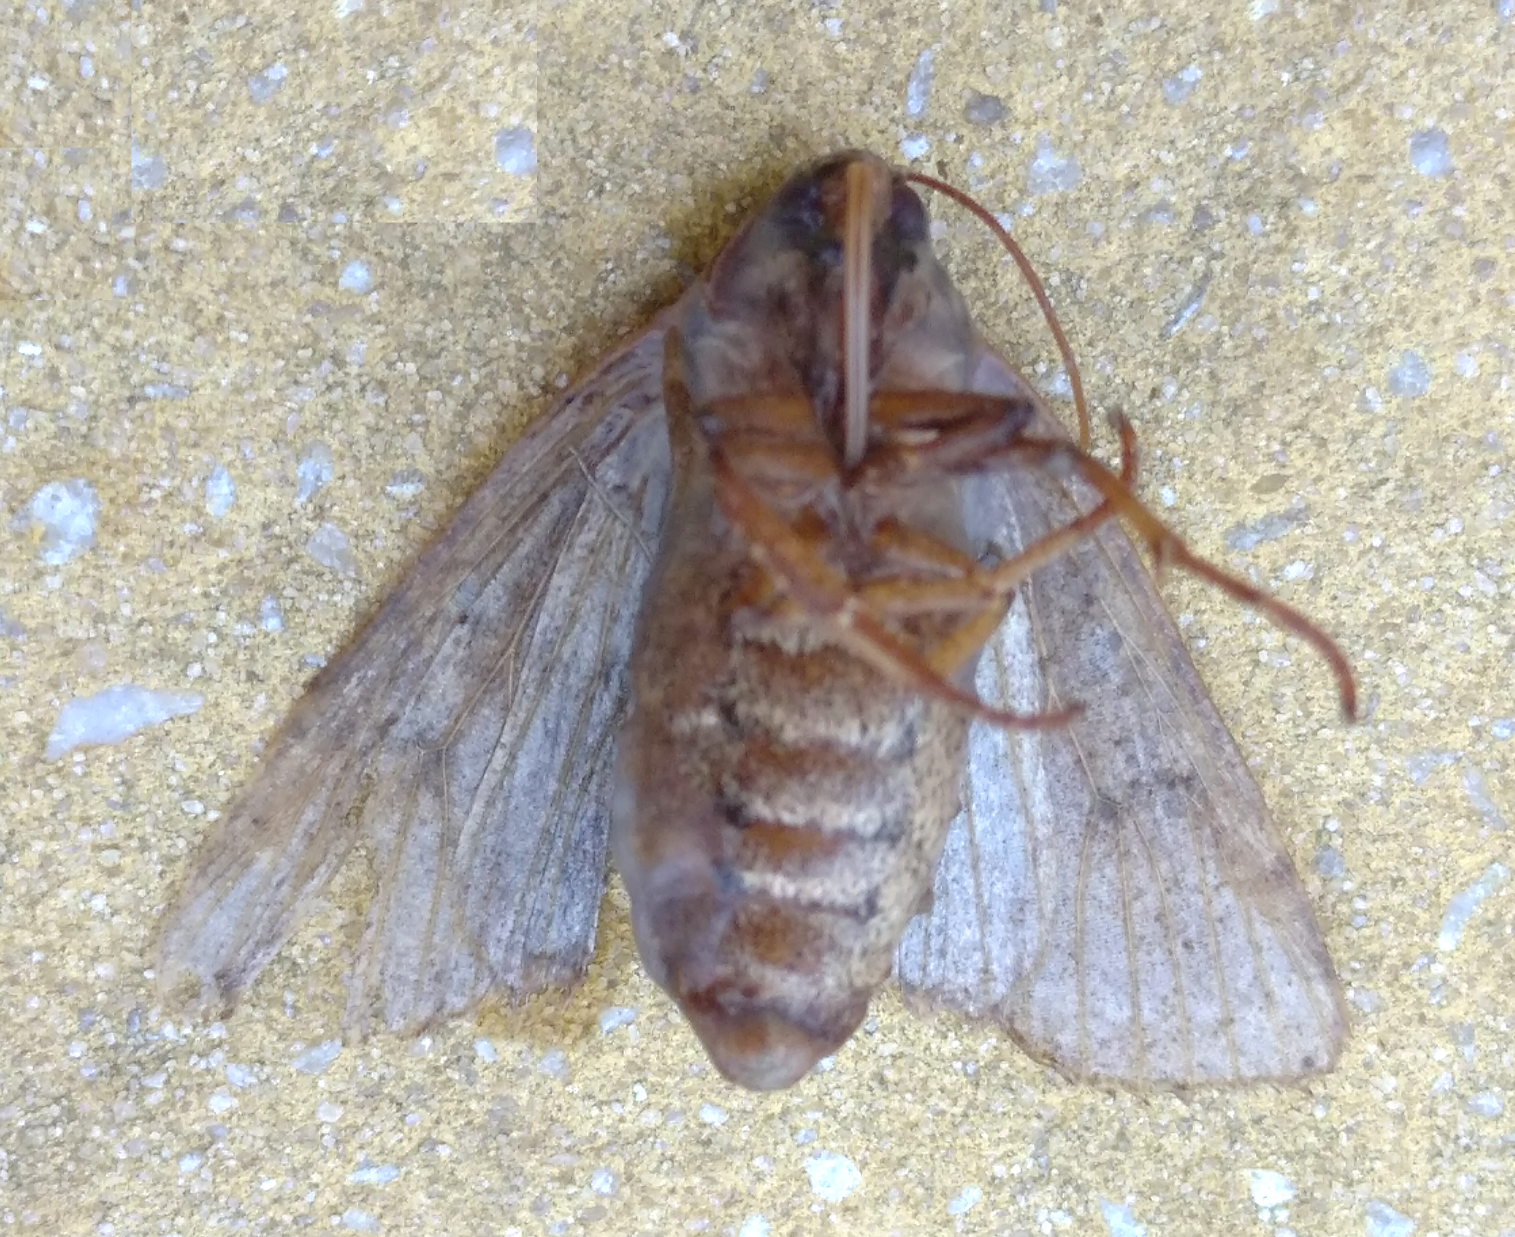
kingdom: Animalia
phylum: Arthropoda
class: Insecta
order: Lepidoptera
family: Noctuidae
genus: Agrochola
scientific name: Agrochola lychnidis
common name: Beaded chestnut
